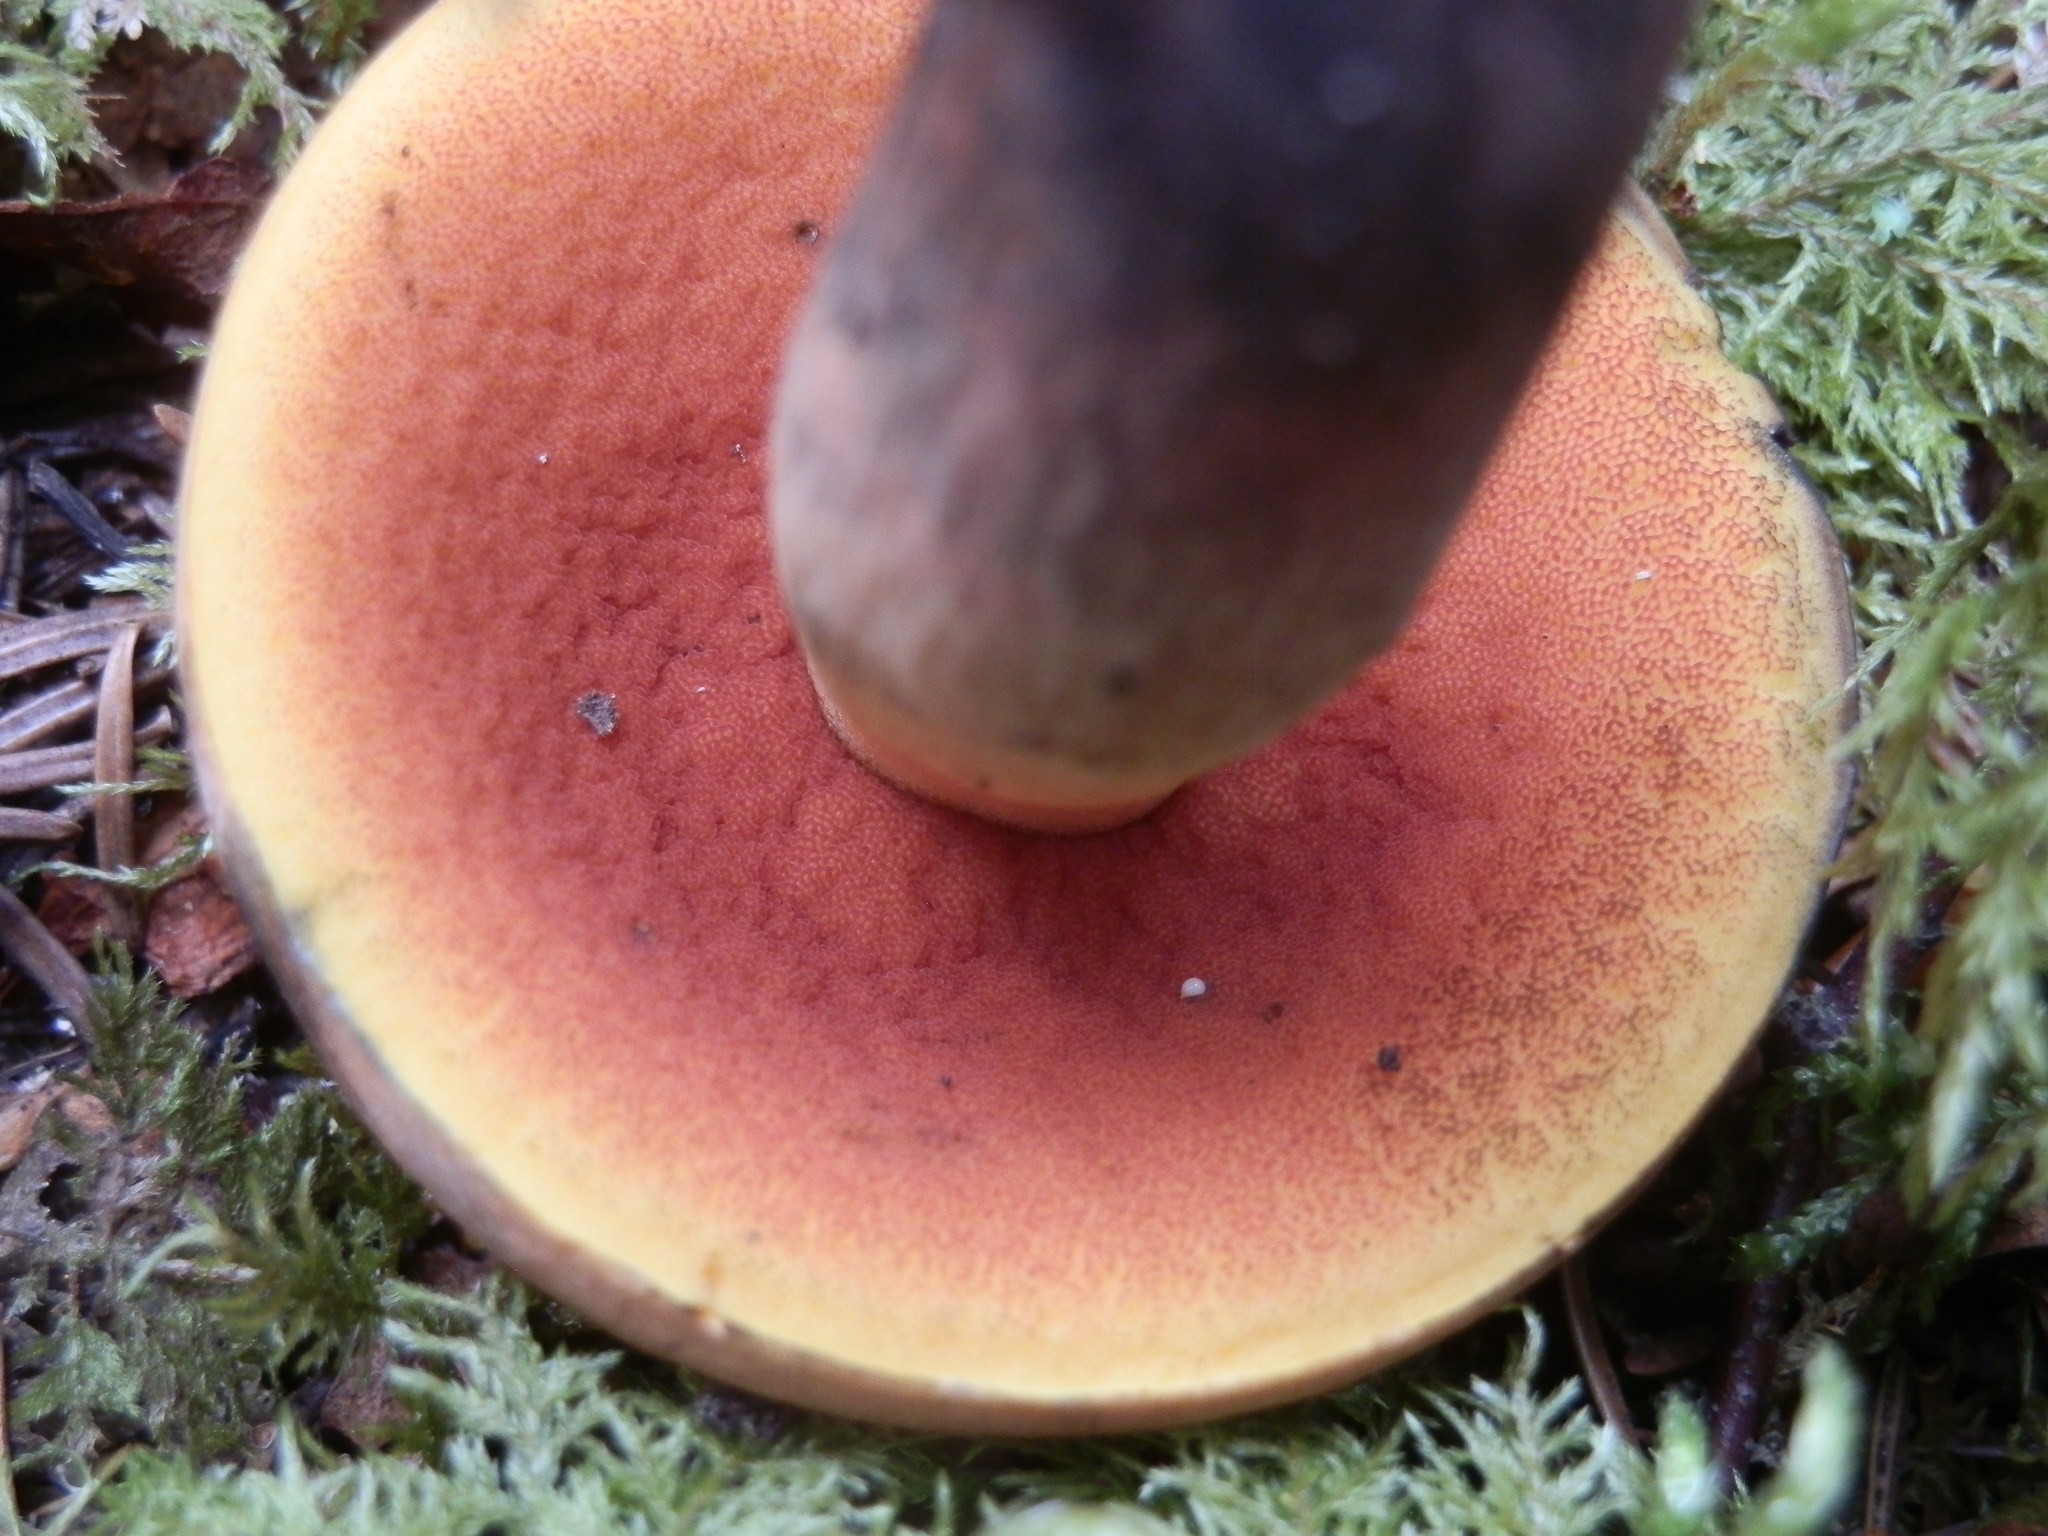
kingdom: Fungi
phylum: Basidiomycota
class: Agaricomycetes
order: Boletales
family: Boletaceae
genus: Boletus
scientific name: Boletus subvelutipes
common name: Red-mouth bolete
